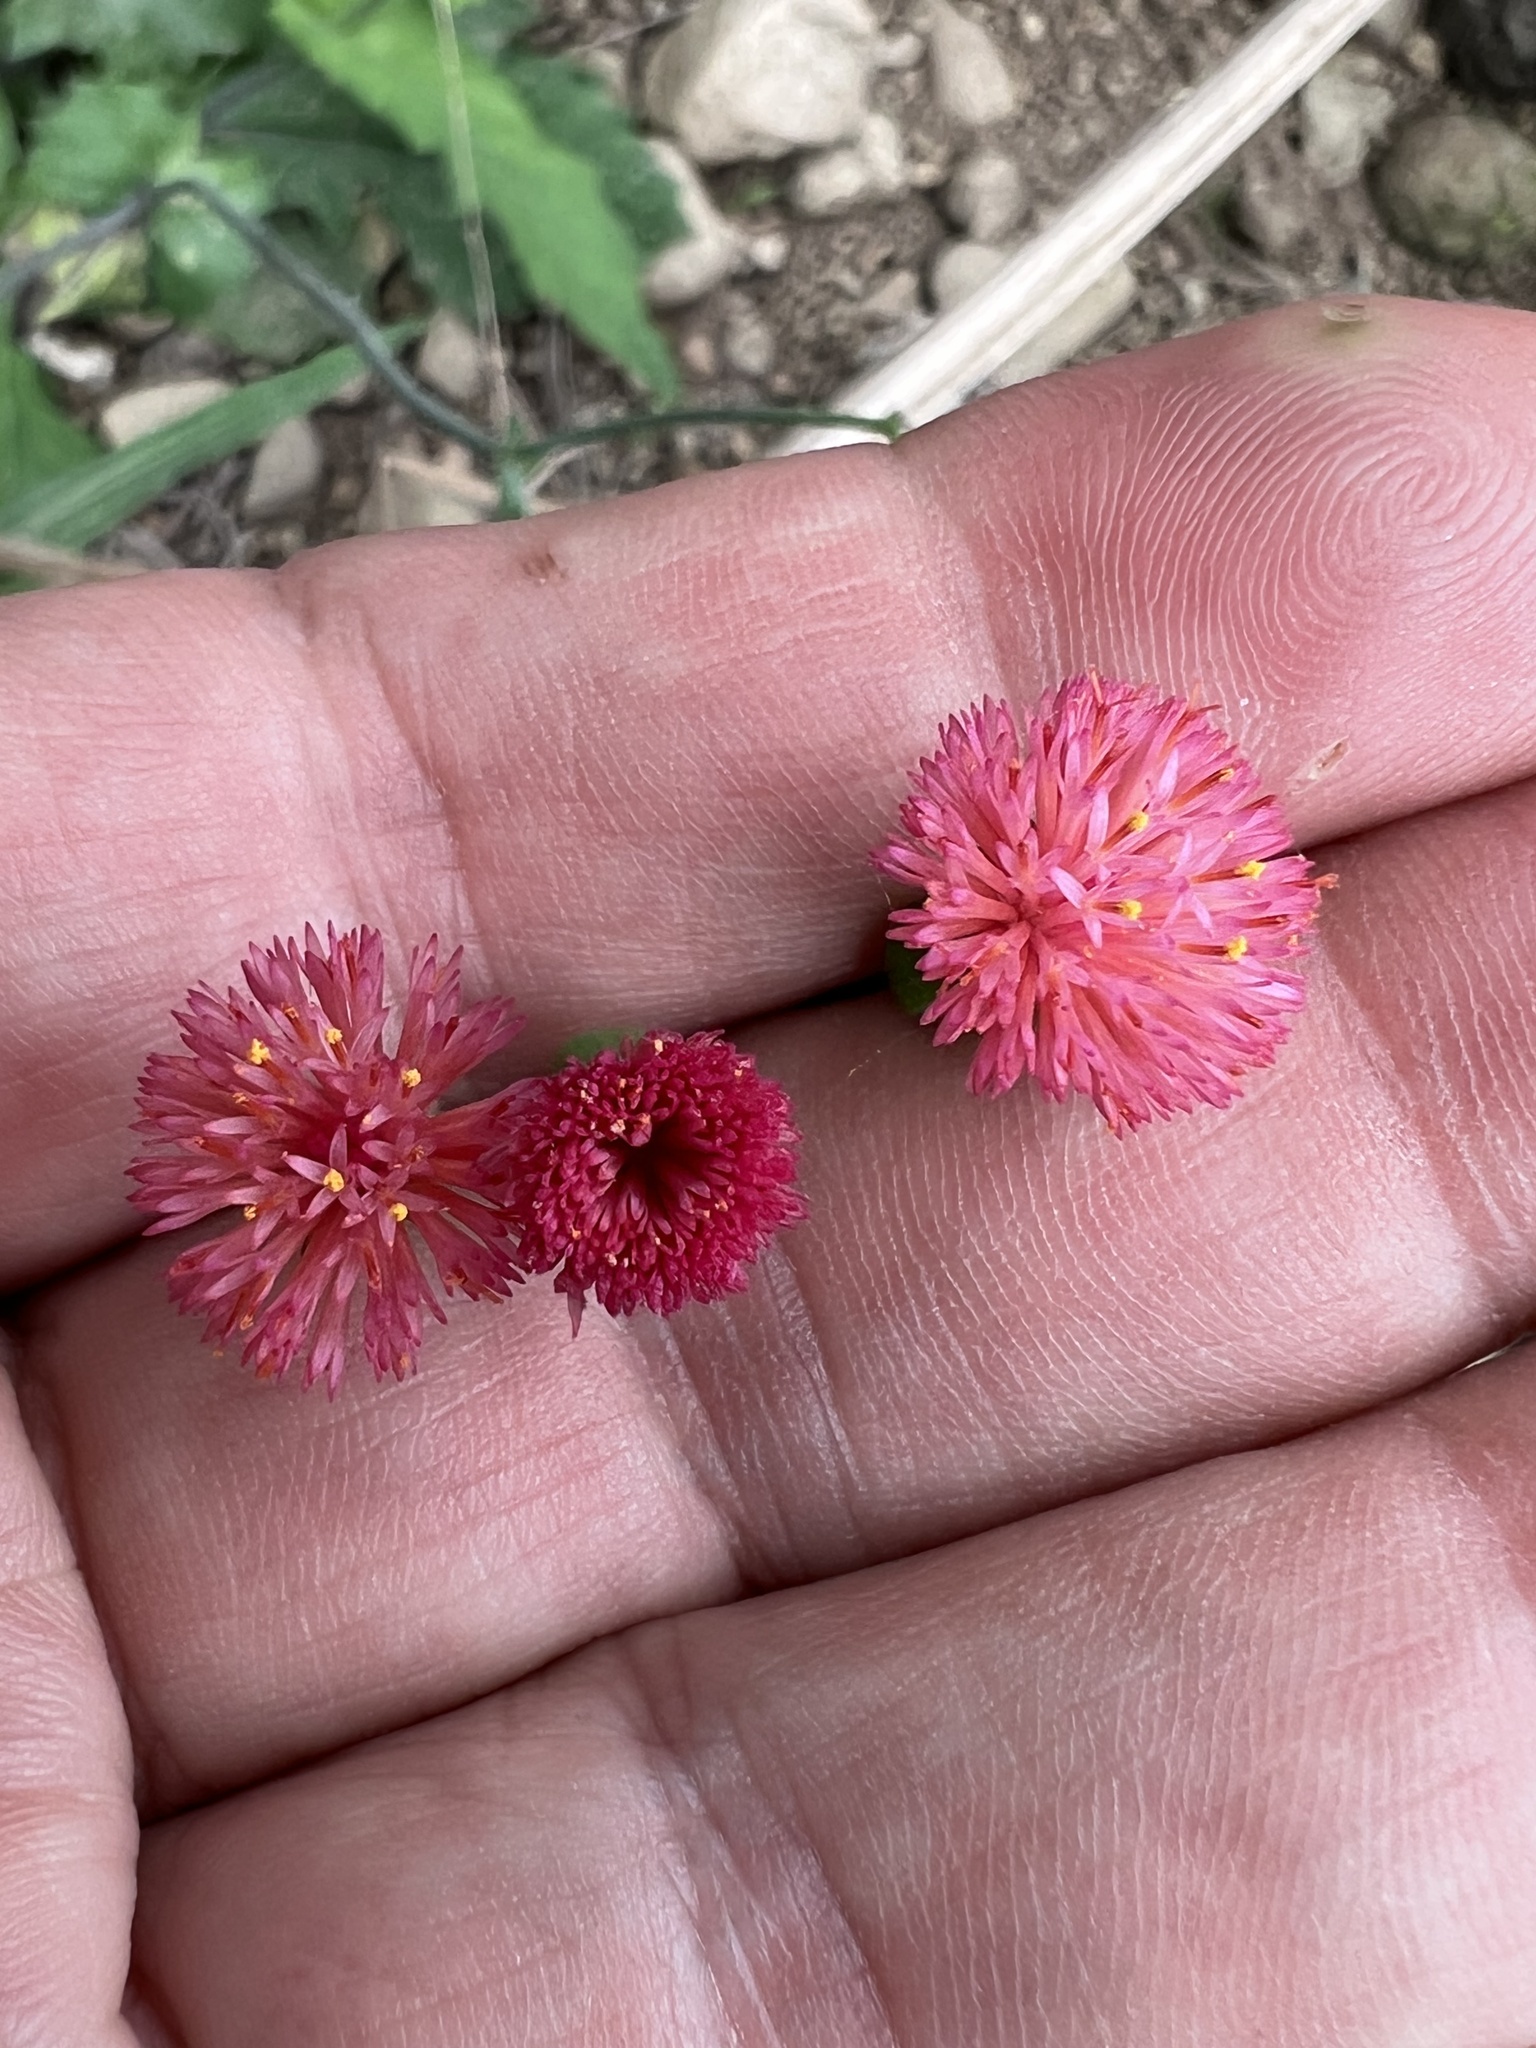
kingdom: Plantae
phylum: Tracheophyta
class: Magnoliopsida
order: Asterales
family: Asteraceae
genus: Emilia
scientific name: Emilia fosbergii
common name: Florida tasselflower
